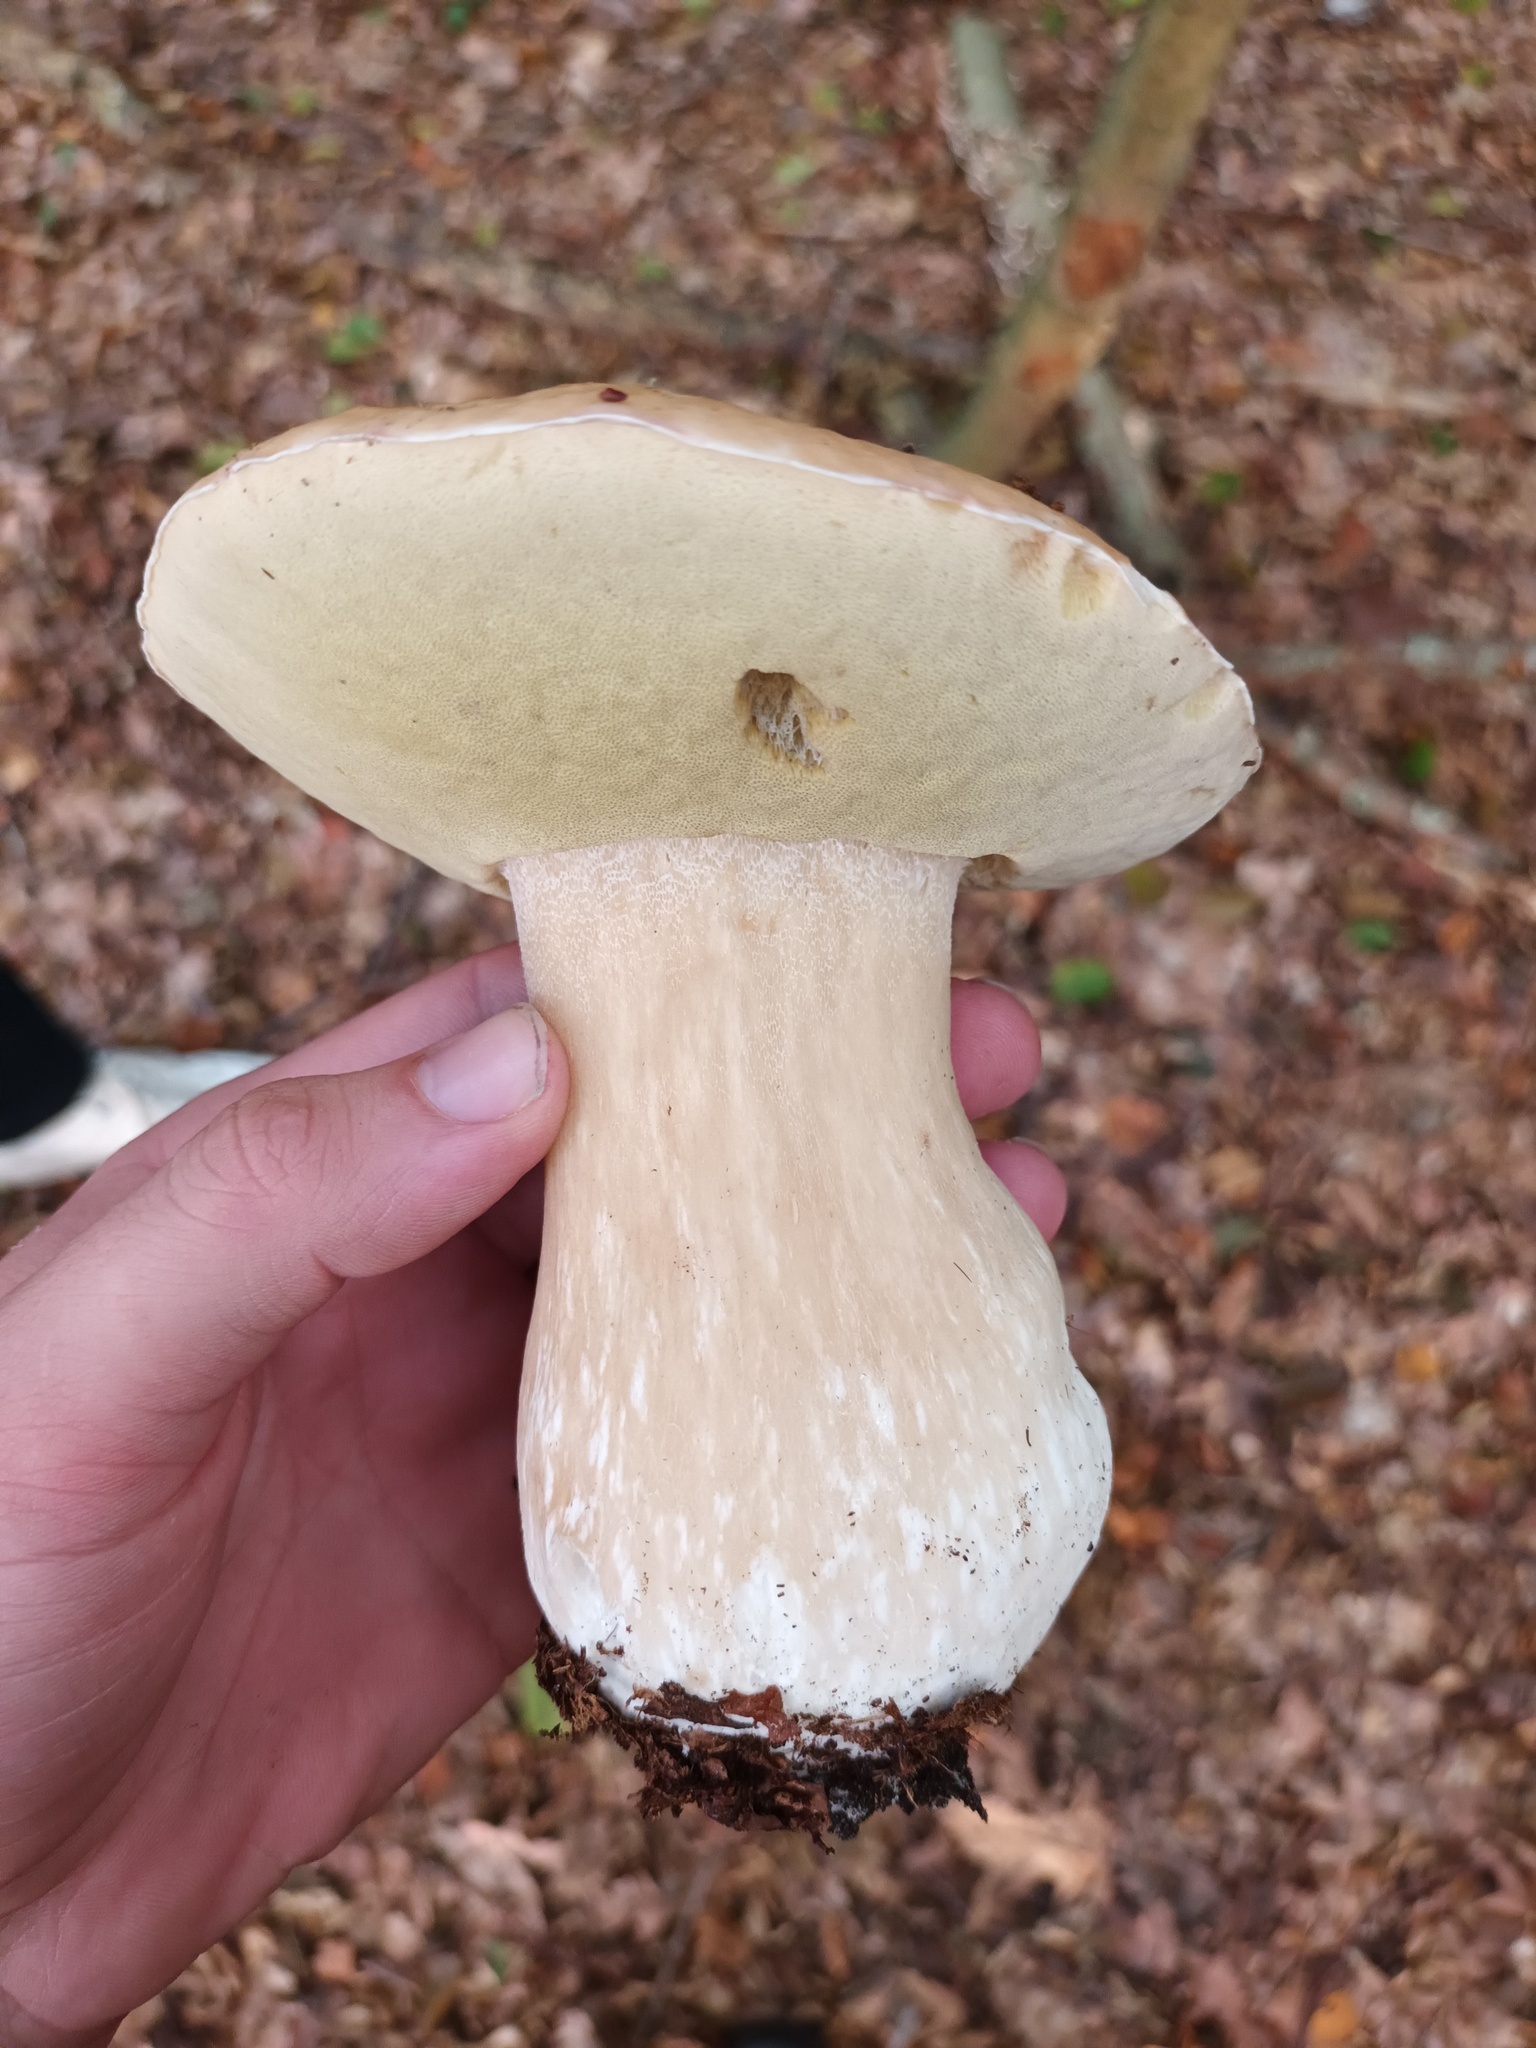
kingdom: Fungi
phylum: Basidiomycota
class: Agaricomycetes
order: Boletales
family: Boletaceae
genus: Boletus
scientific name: Boletus edulis
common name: Cep
